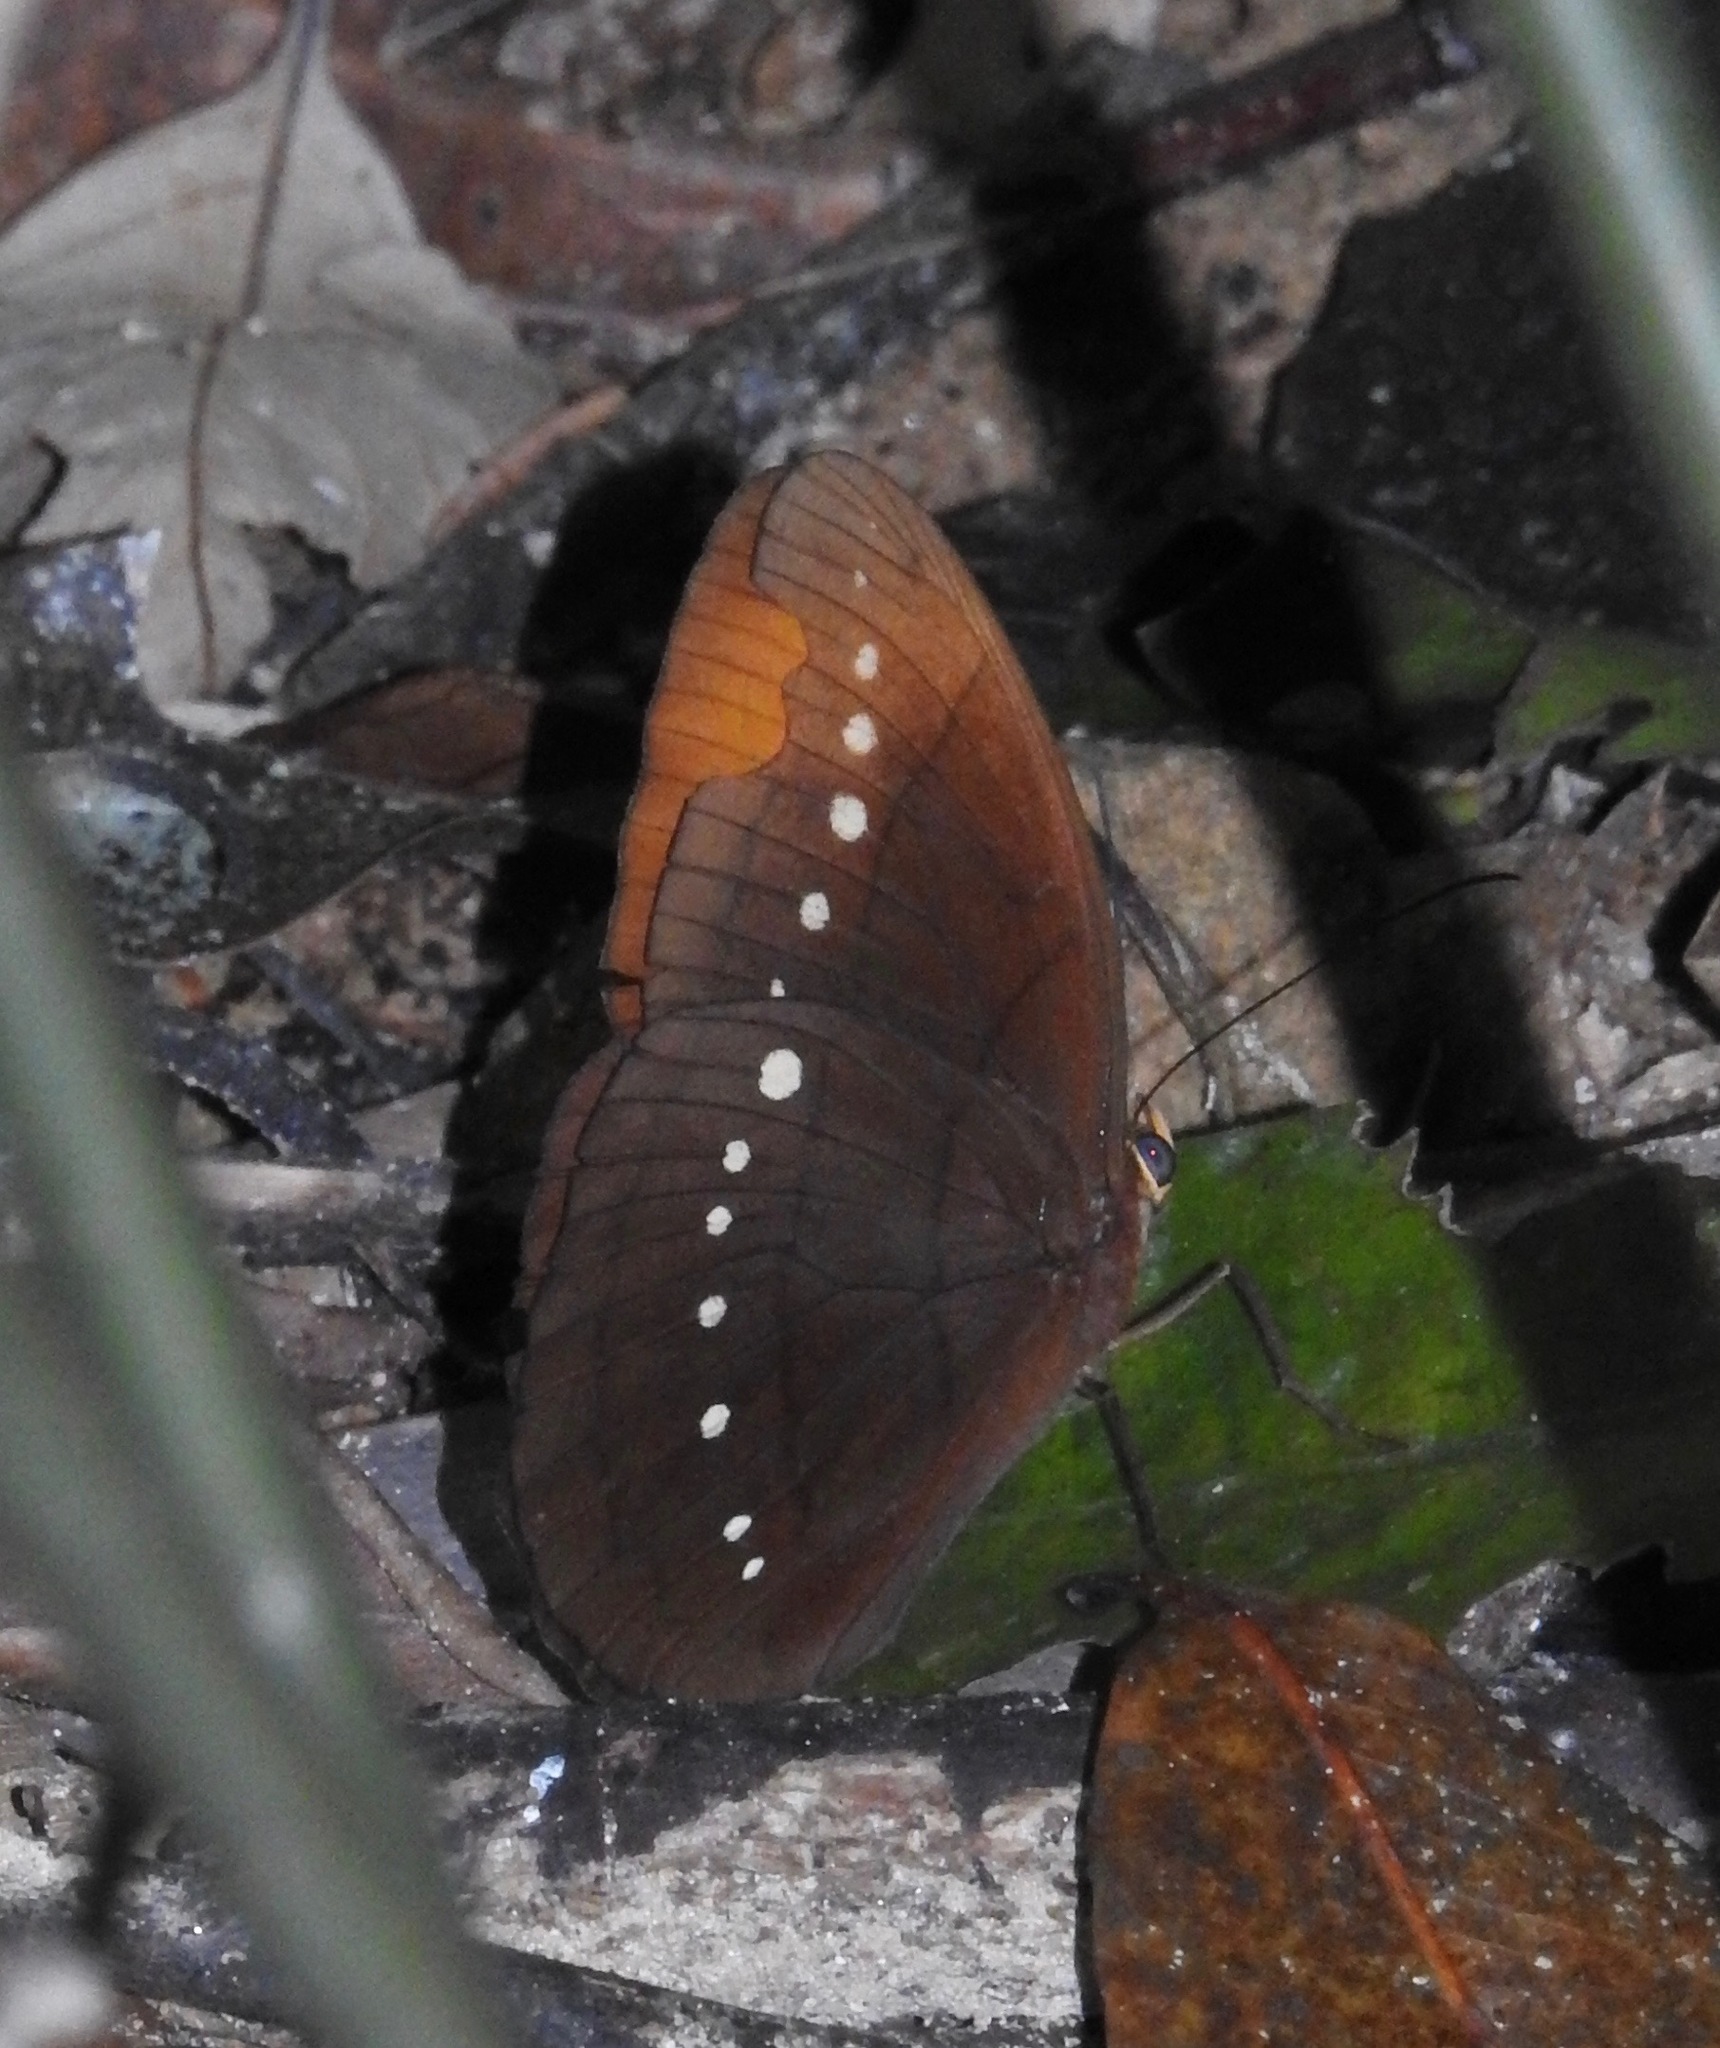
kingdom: Animalia
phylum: Arthropoda
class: Insecta
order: Lepidoptera
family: Nymphalidae
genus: Faunis
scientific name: Faunis eumeus
